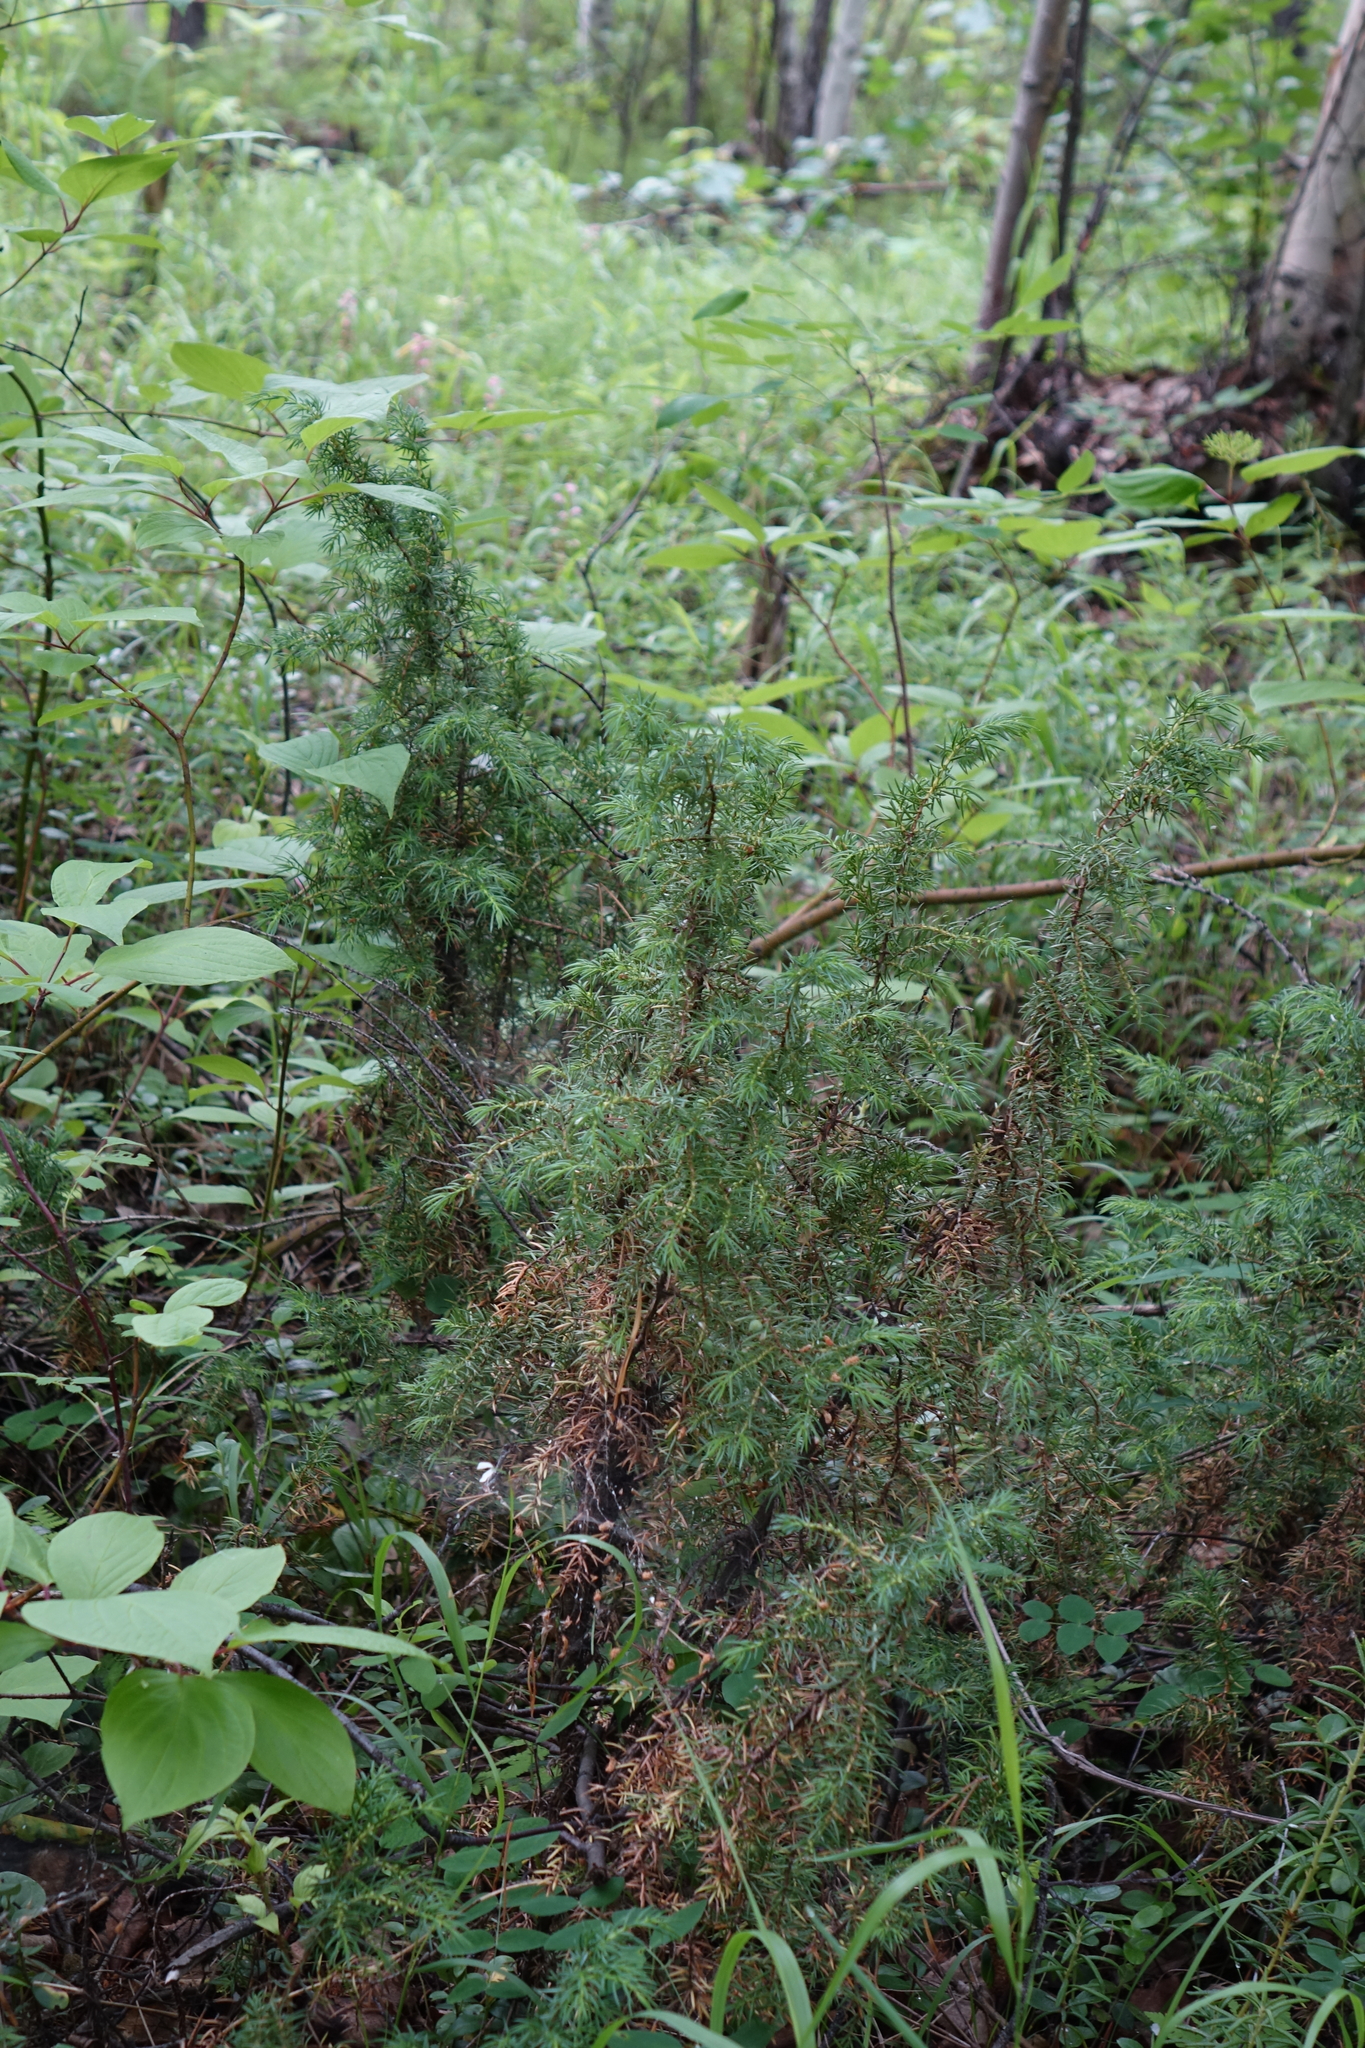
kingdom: Plantae
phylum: Tracheophyta
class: Pinopsida
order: Pinales
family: Cupressaceae
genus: Juniperus
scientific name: Juniperus communis
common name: Common juniper
